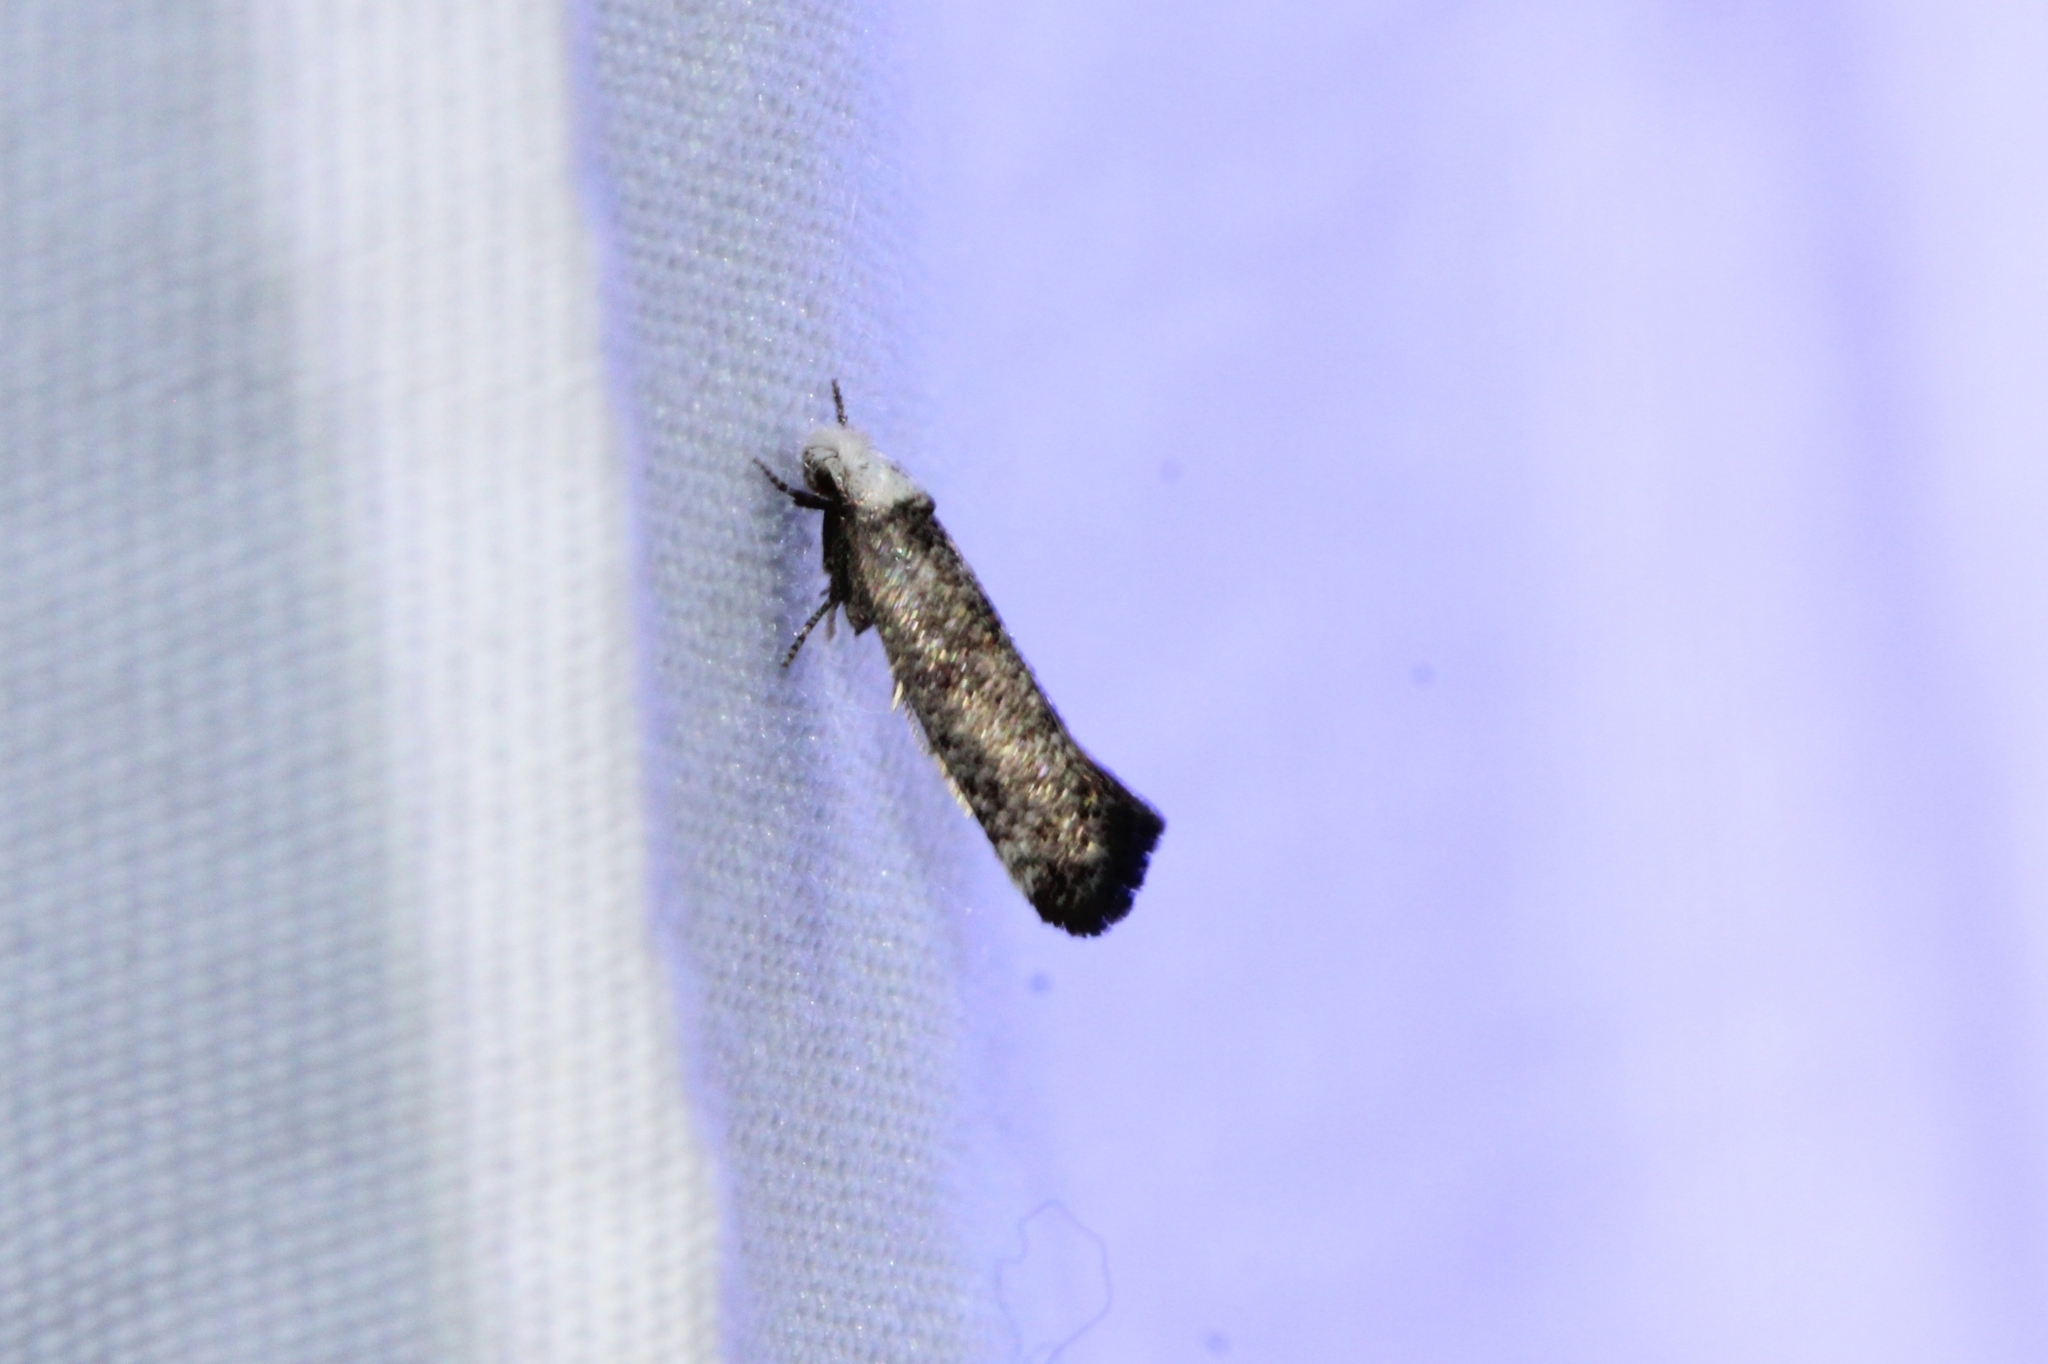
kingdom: Animalia
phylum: Arthropoda
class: Insecta
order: Lepidoptera
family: Yponomeutidae
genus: Swammerdamia
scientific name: Swammerdamia
